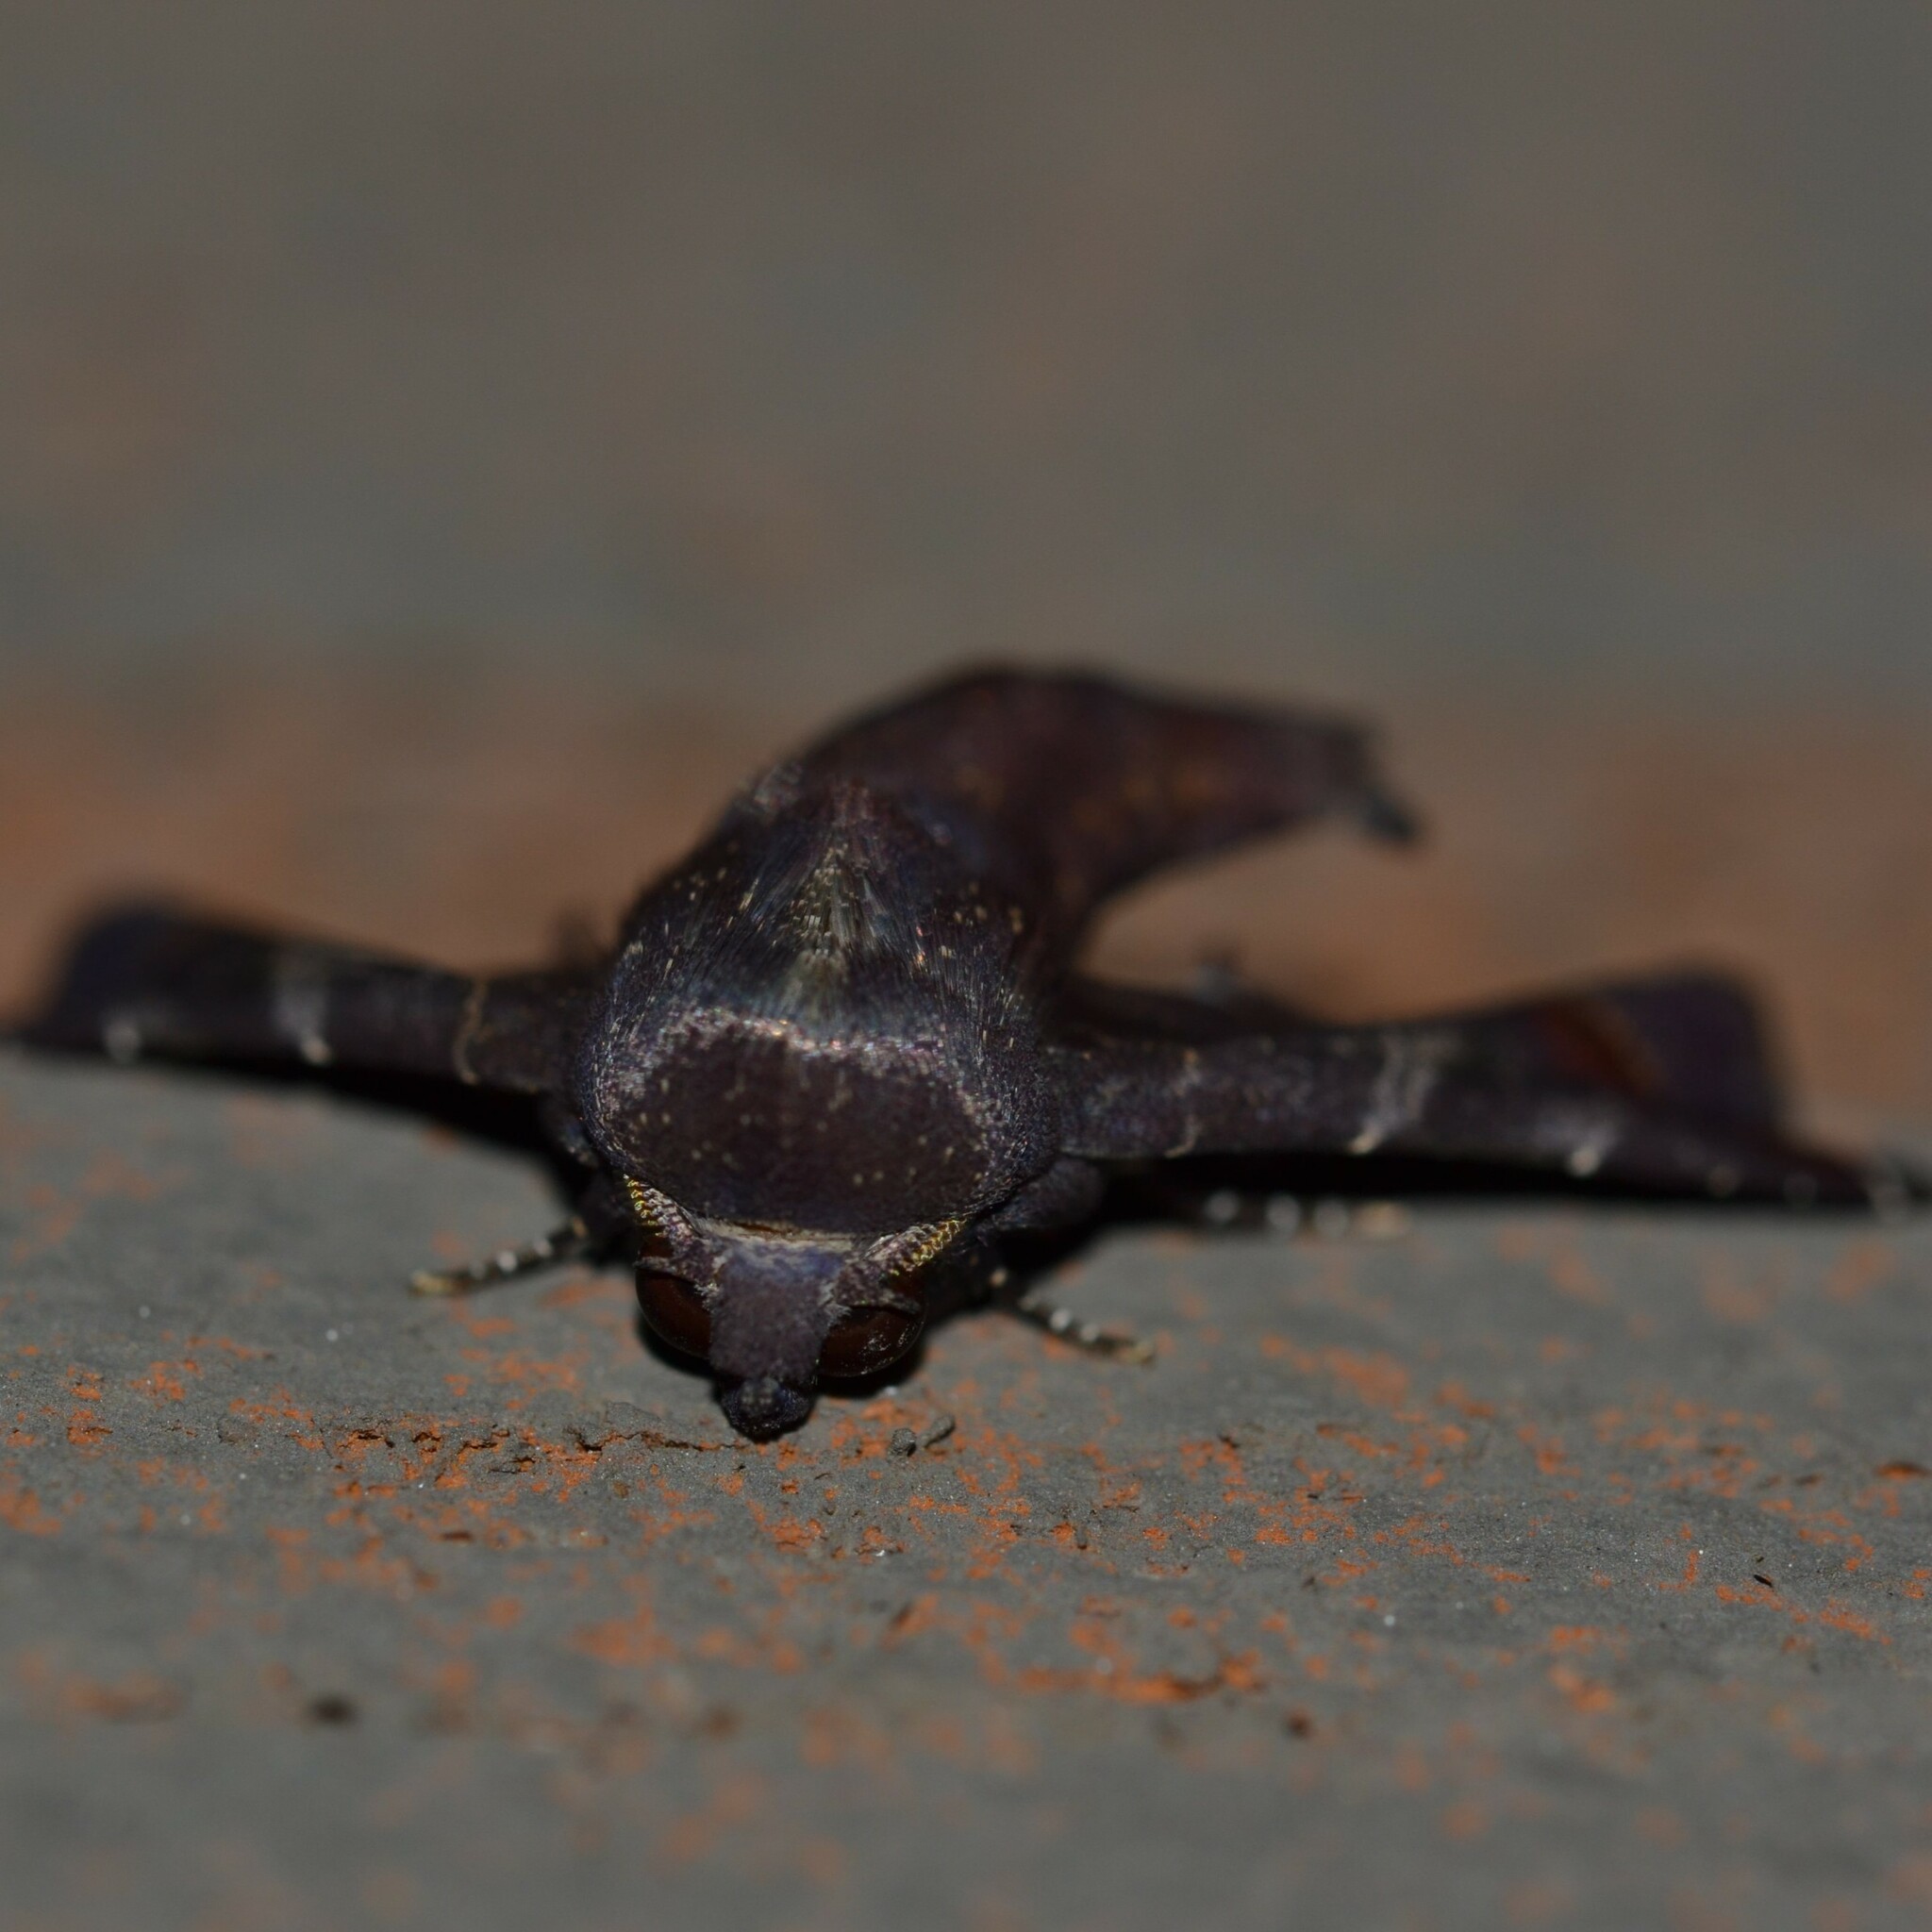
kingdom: Animalia
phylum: Arthropoda
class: Insecta
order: Lepidoptera
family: Euteliidae
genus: Penicillaria
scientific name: Penicillaria jocosatrix
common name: Mango shoot borer
